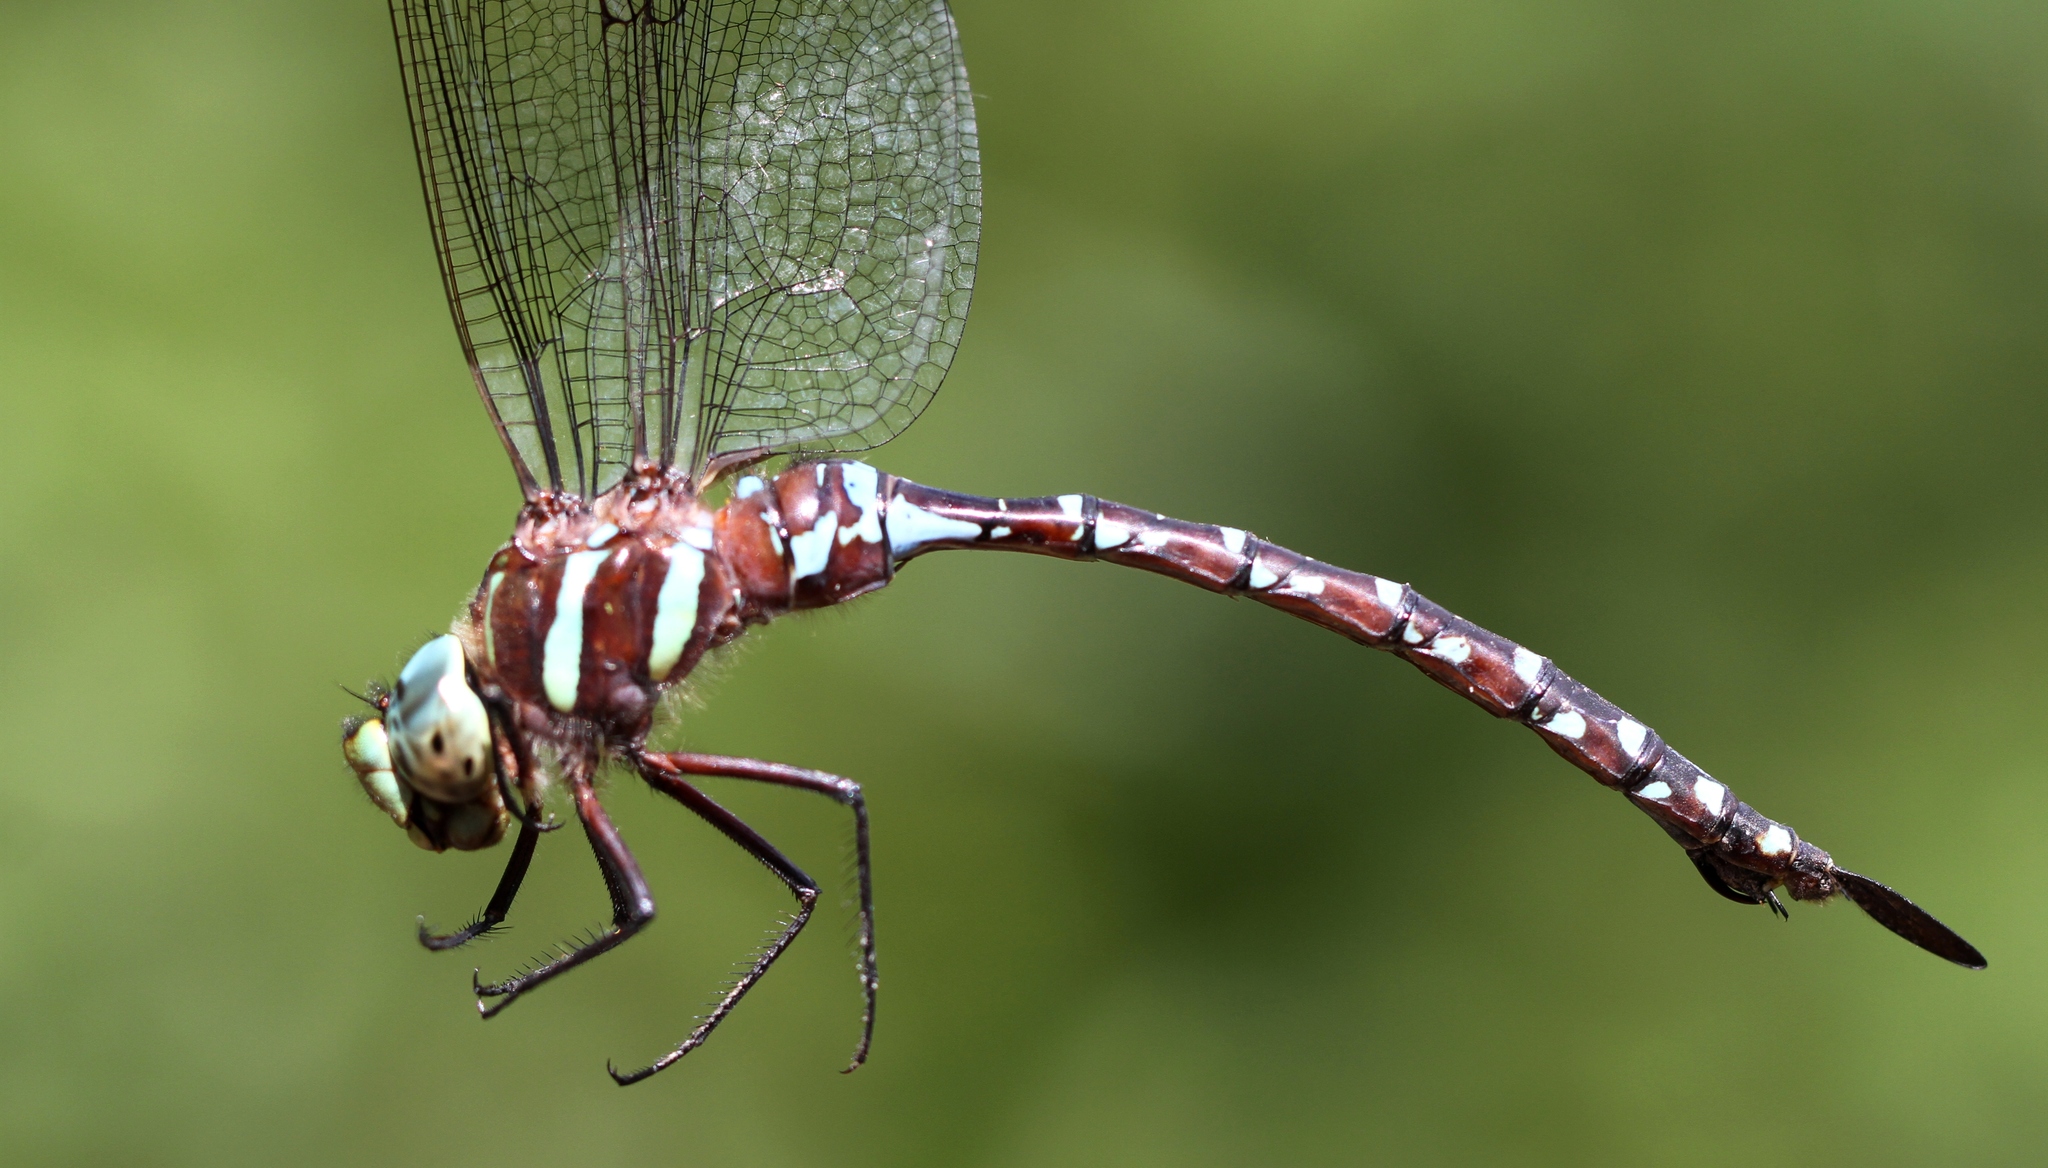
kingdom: Animalia
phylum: Arthropoda
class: Insecta
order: Odonata
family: Aeshnidae
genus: Aeshna
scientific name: Aeshna tuberculifera
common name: Aeschne à tubercules
